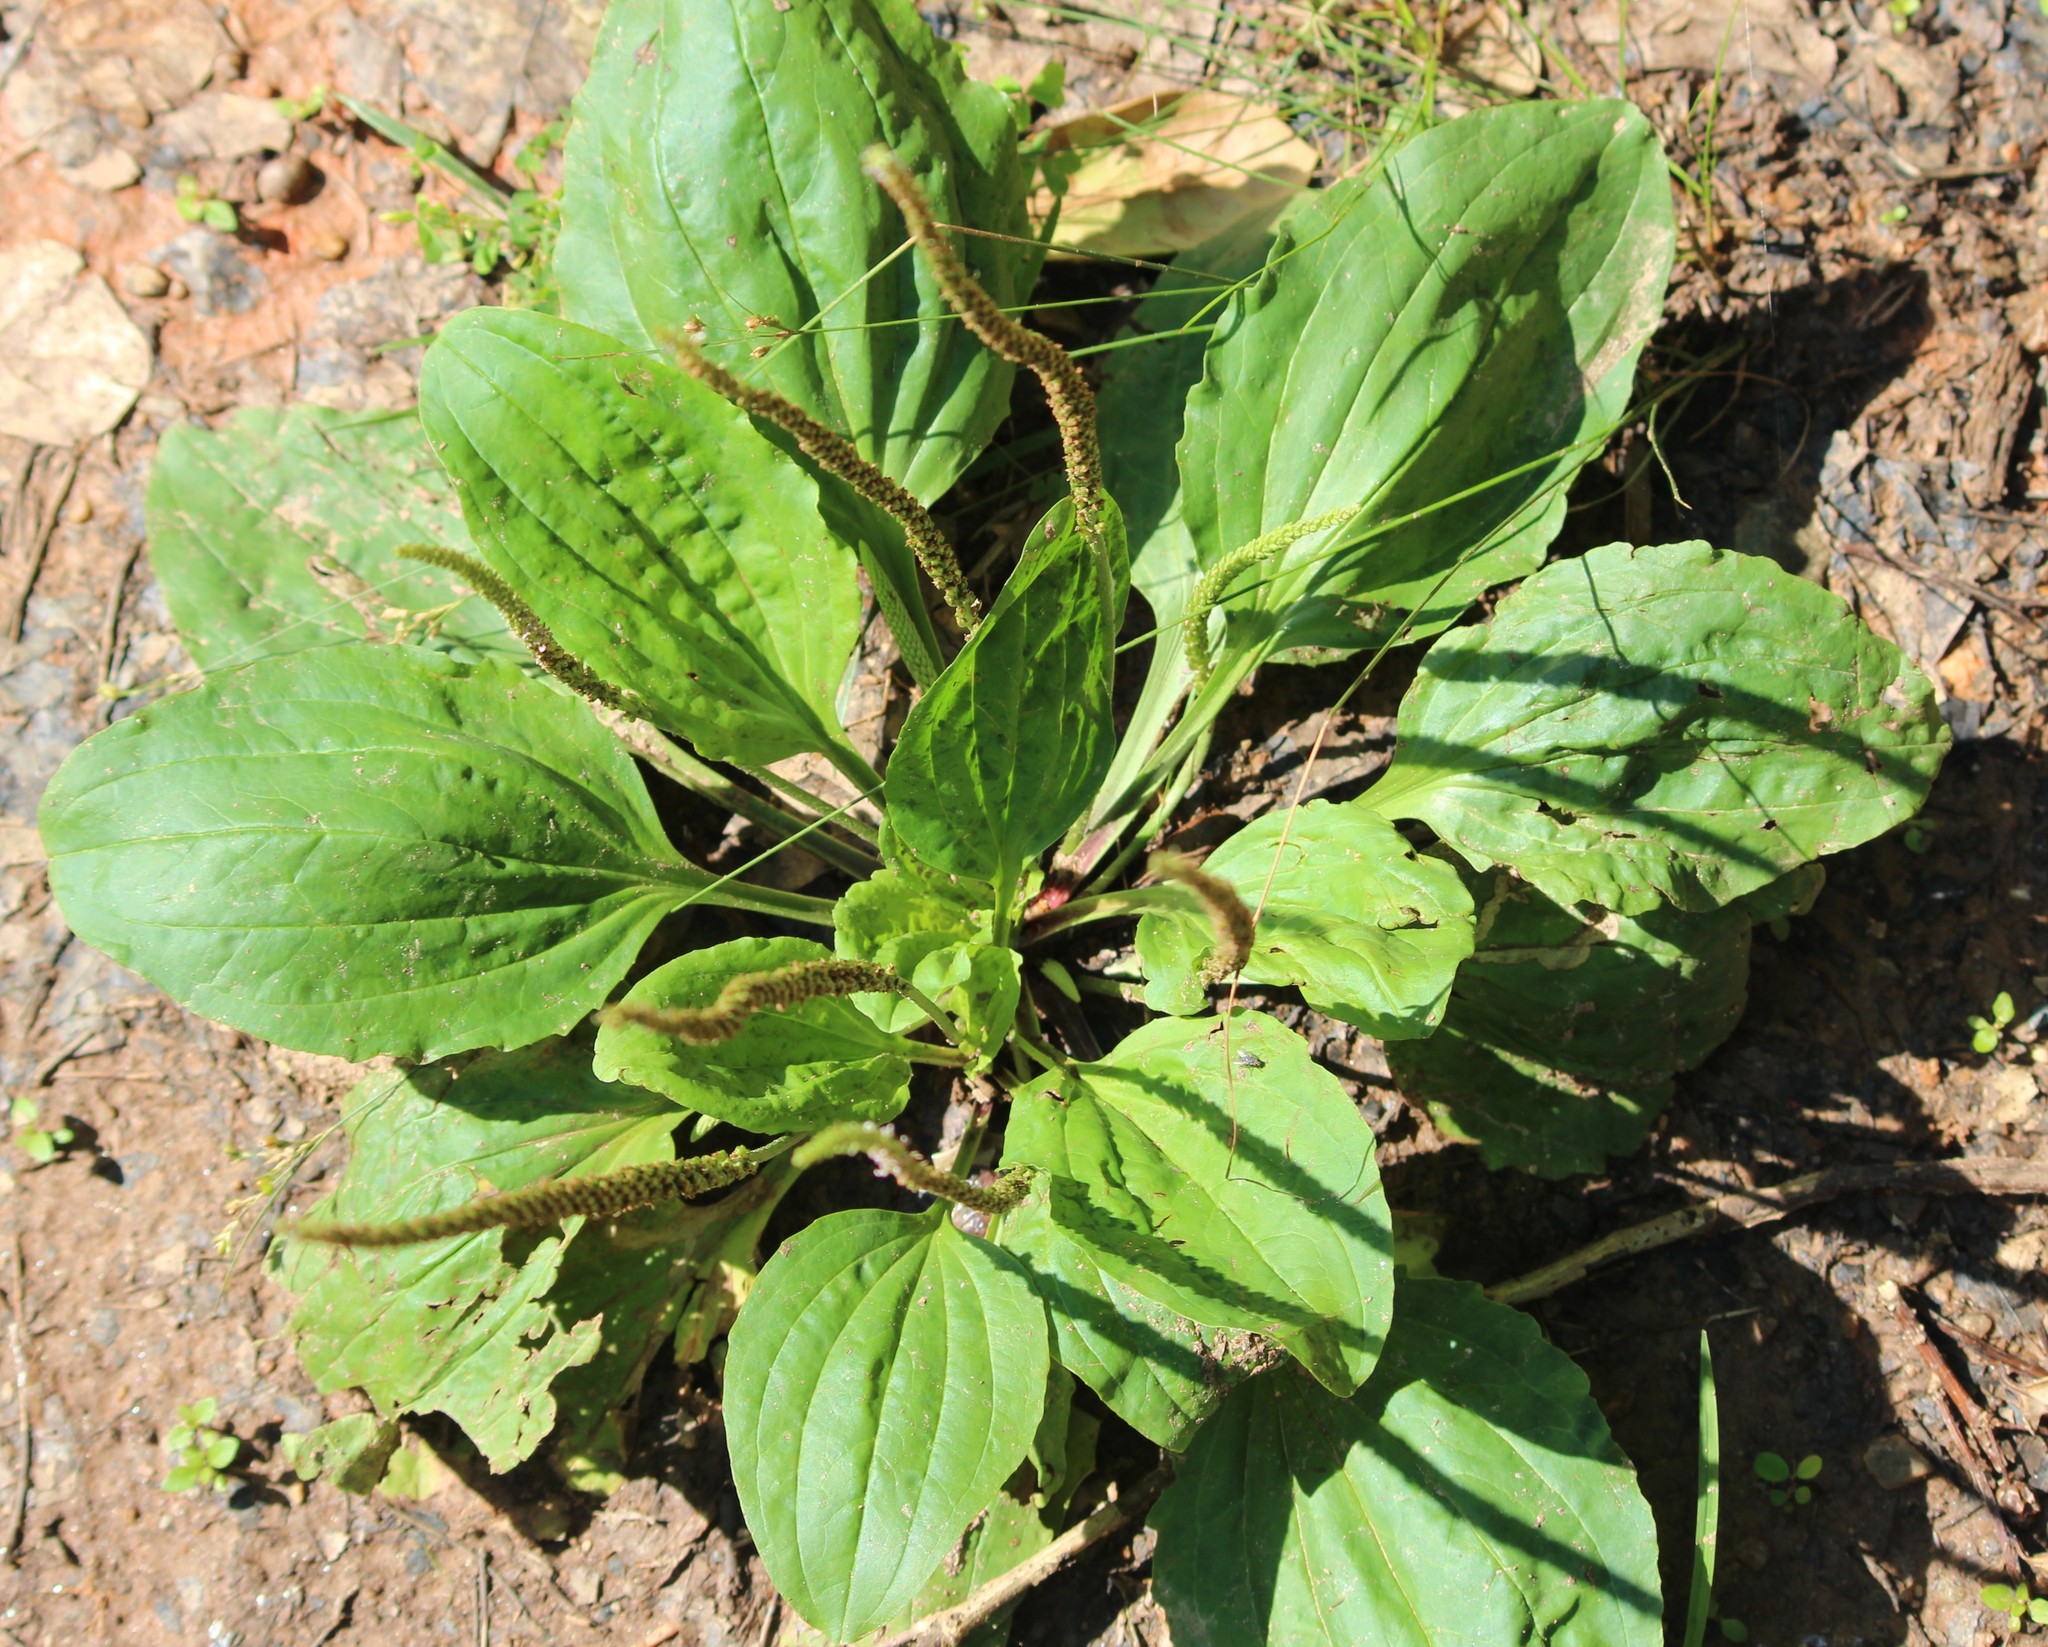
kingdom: Plantae
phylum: Tracheophyta
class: Magnoliopsida
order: Lamiales
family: Plantaginaceae
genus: Plantago
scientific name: Plantago rugelii
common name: American plantain
